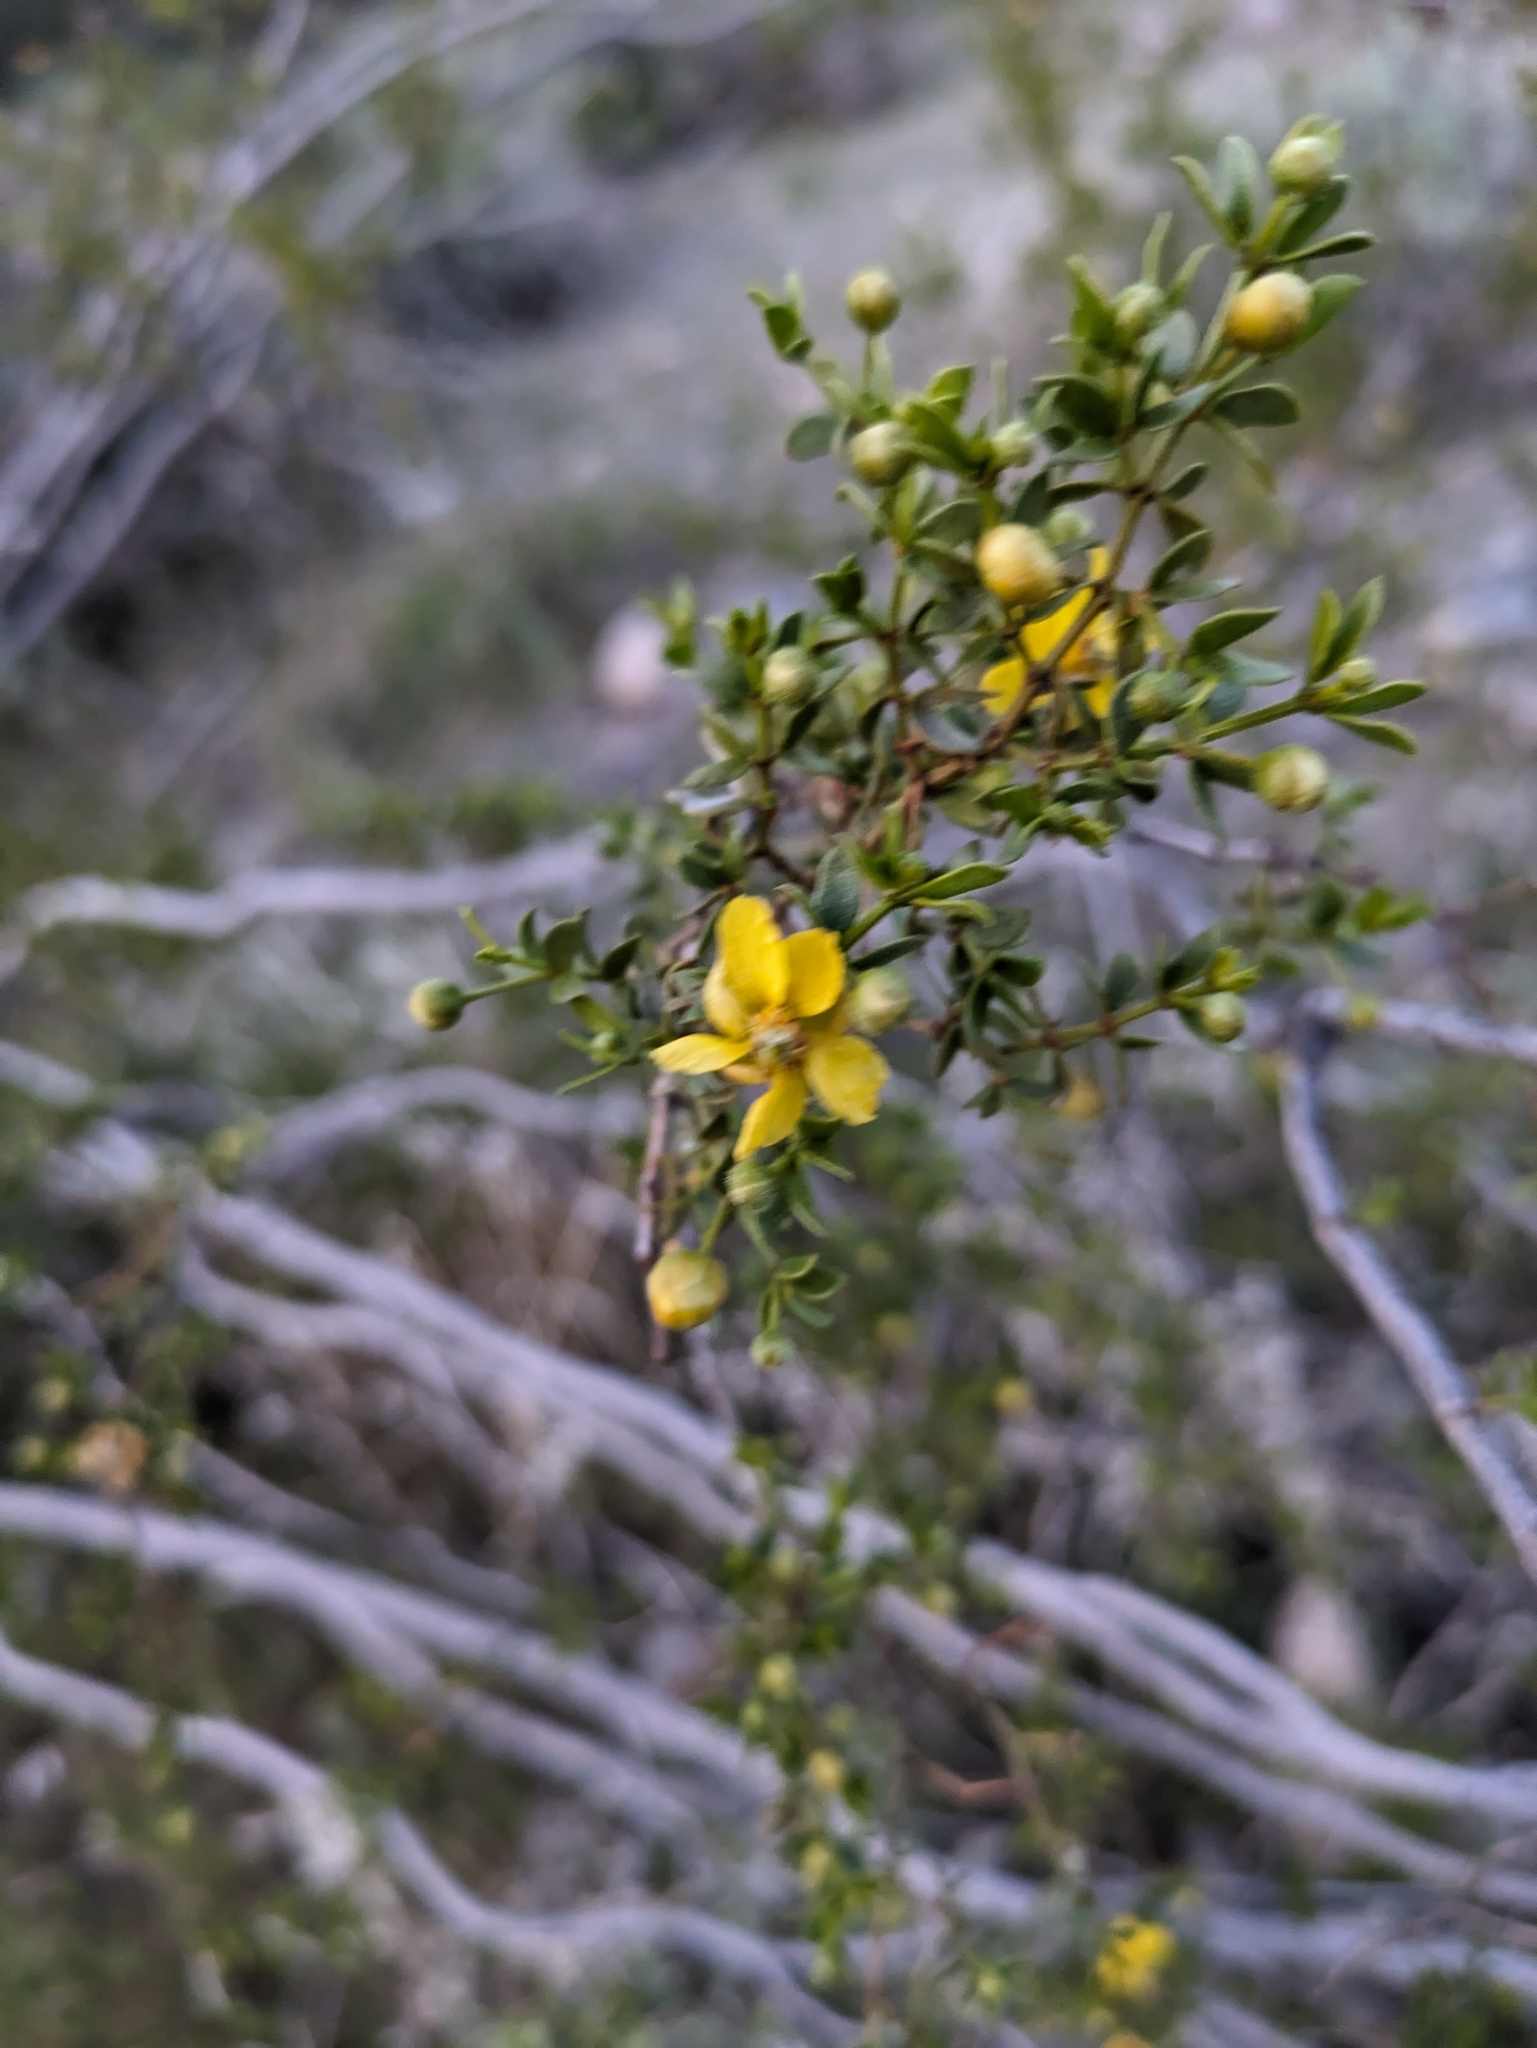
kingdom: Plantae
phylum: Tracheophyta
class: Magnoliopsida
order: Zygophyllales
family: Zygophyllaceae
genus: Larrea
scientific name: Larrea tridentata
